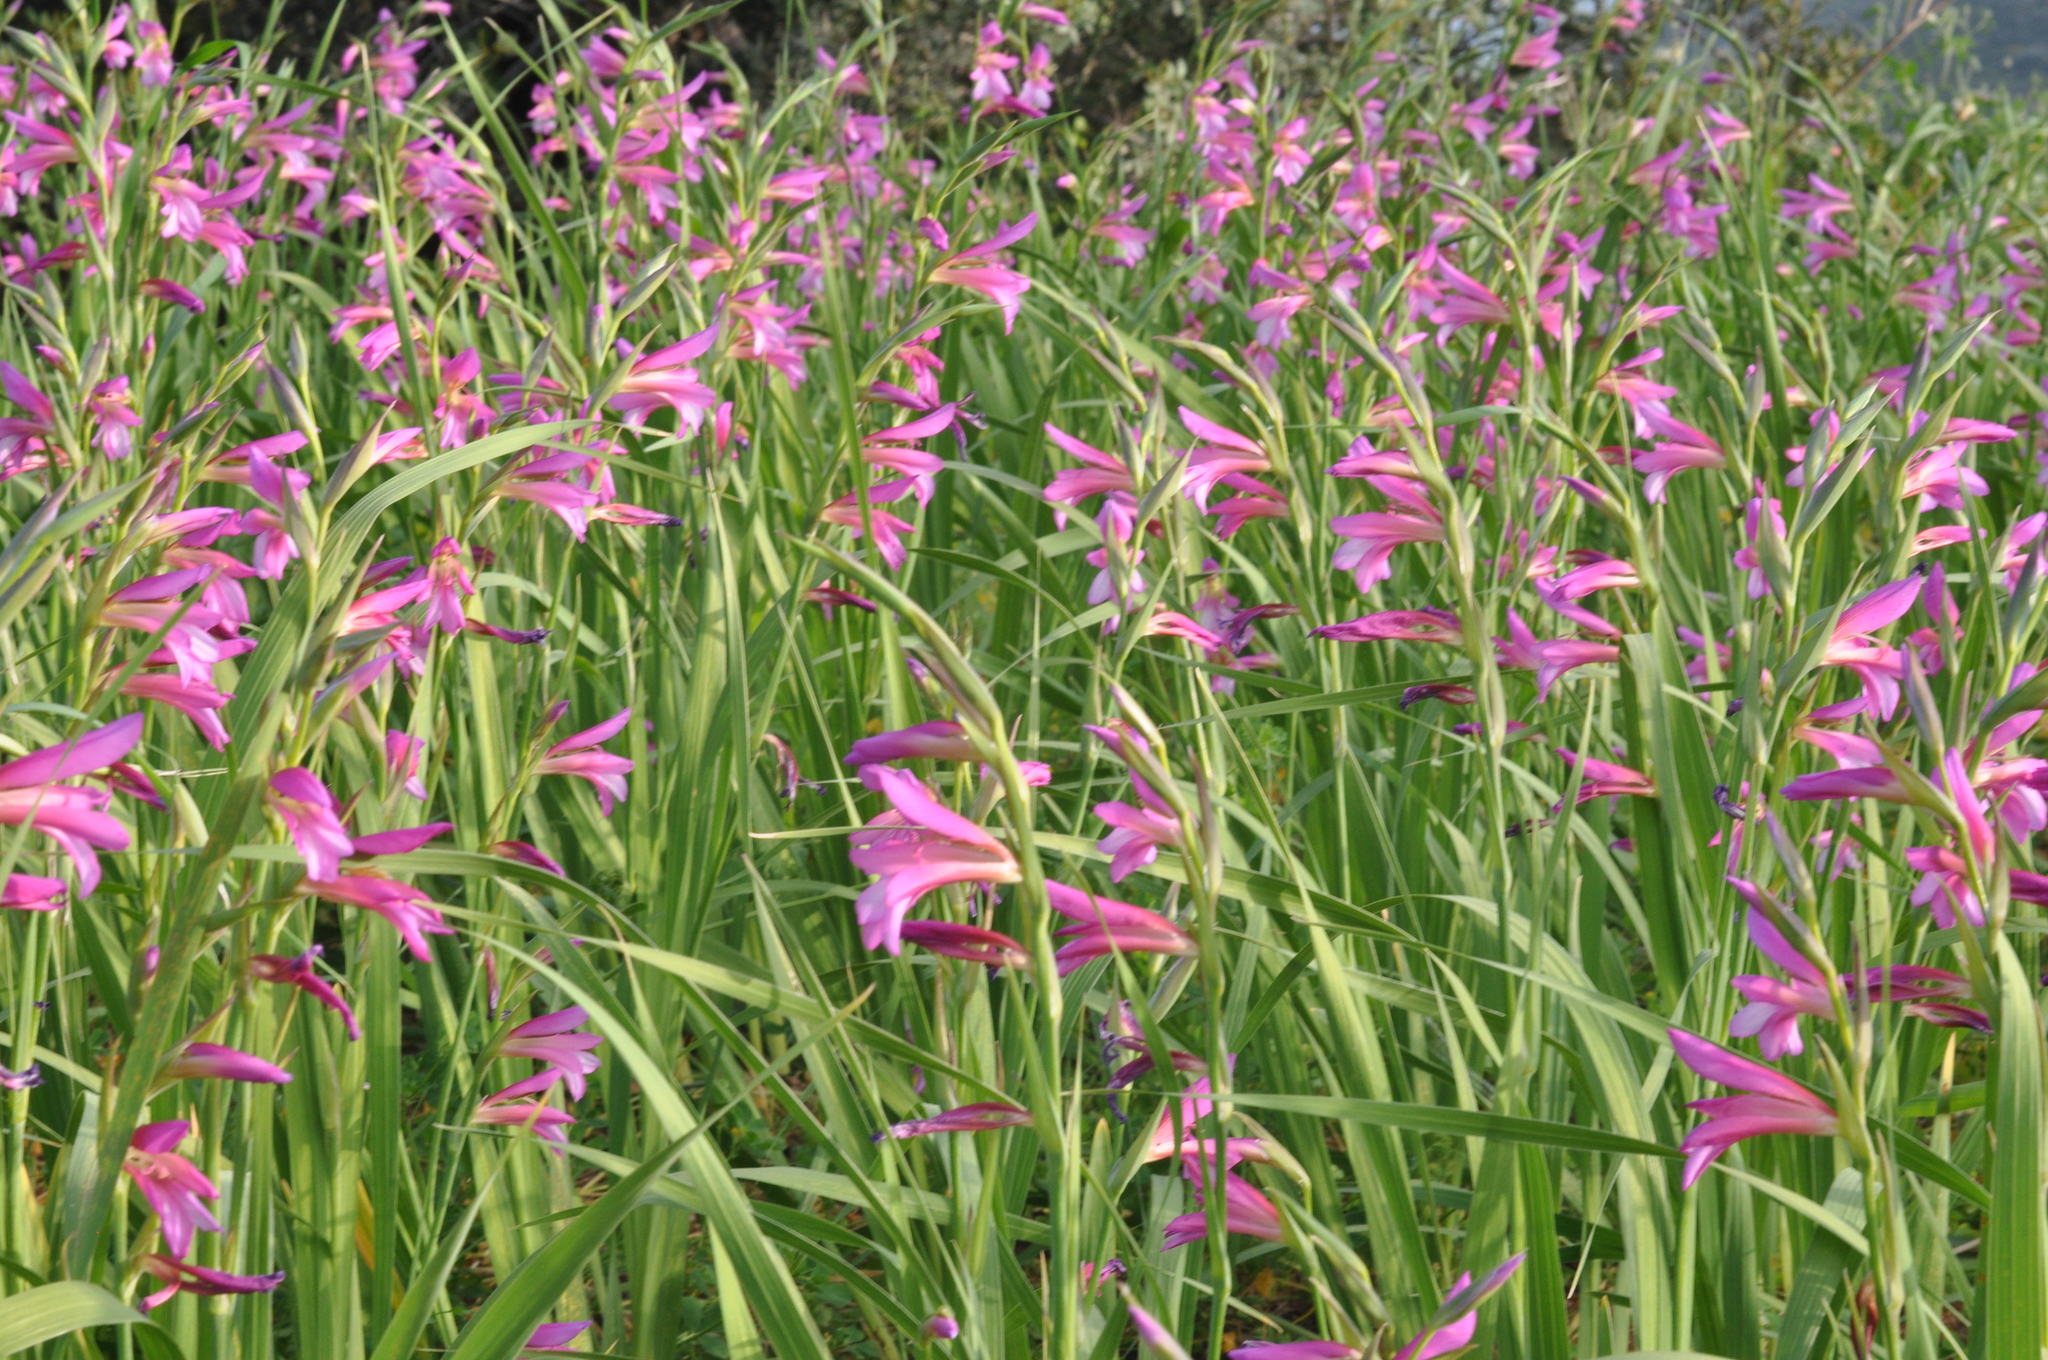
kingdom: Plantae
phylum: Tracheophyta
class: Liliopsida
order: Asparagales
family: Iridaceae
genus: Gladiolus
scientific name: Gladiolus italicus
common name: Field gladiolus
